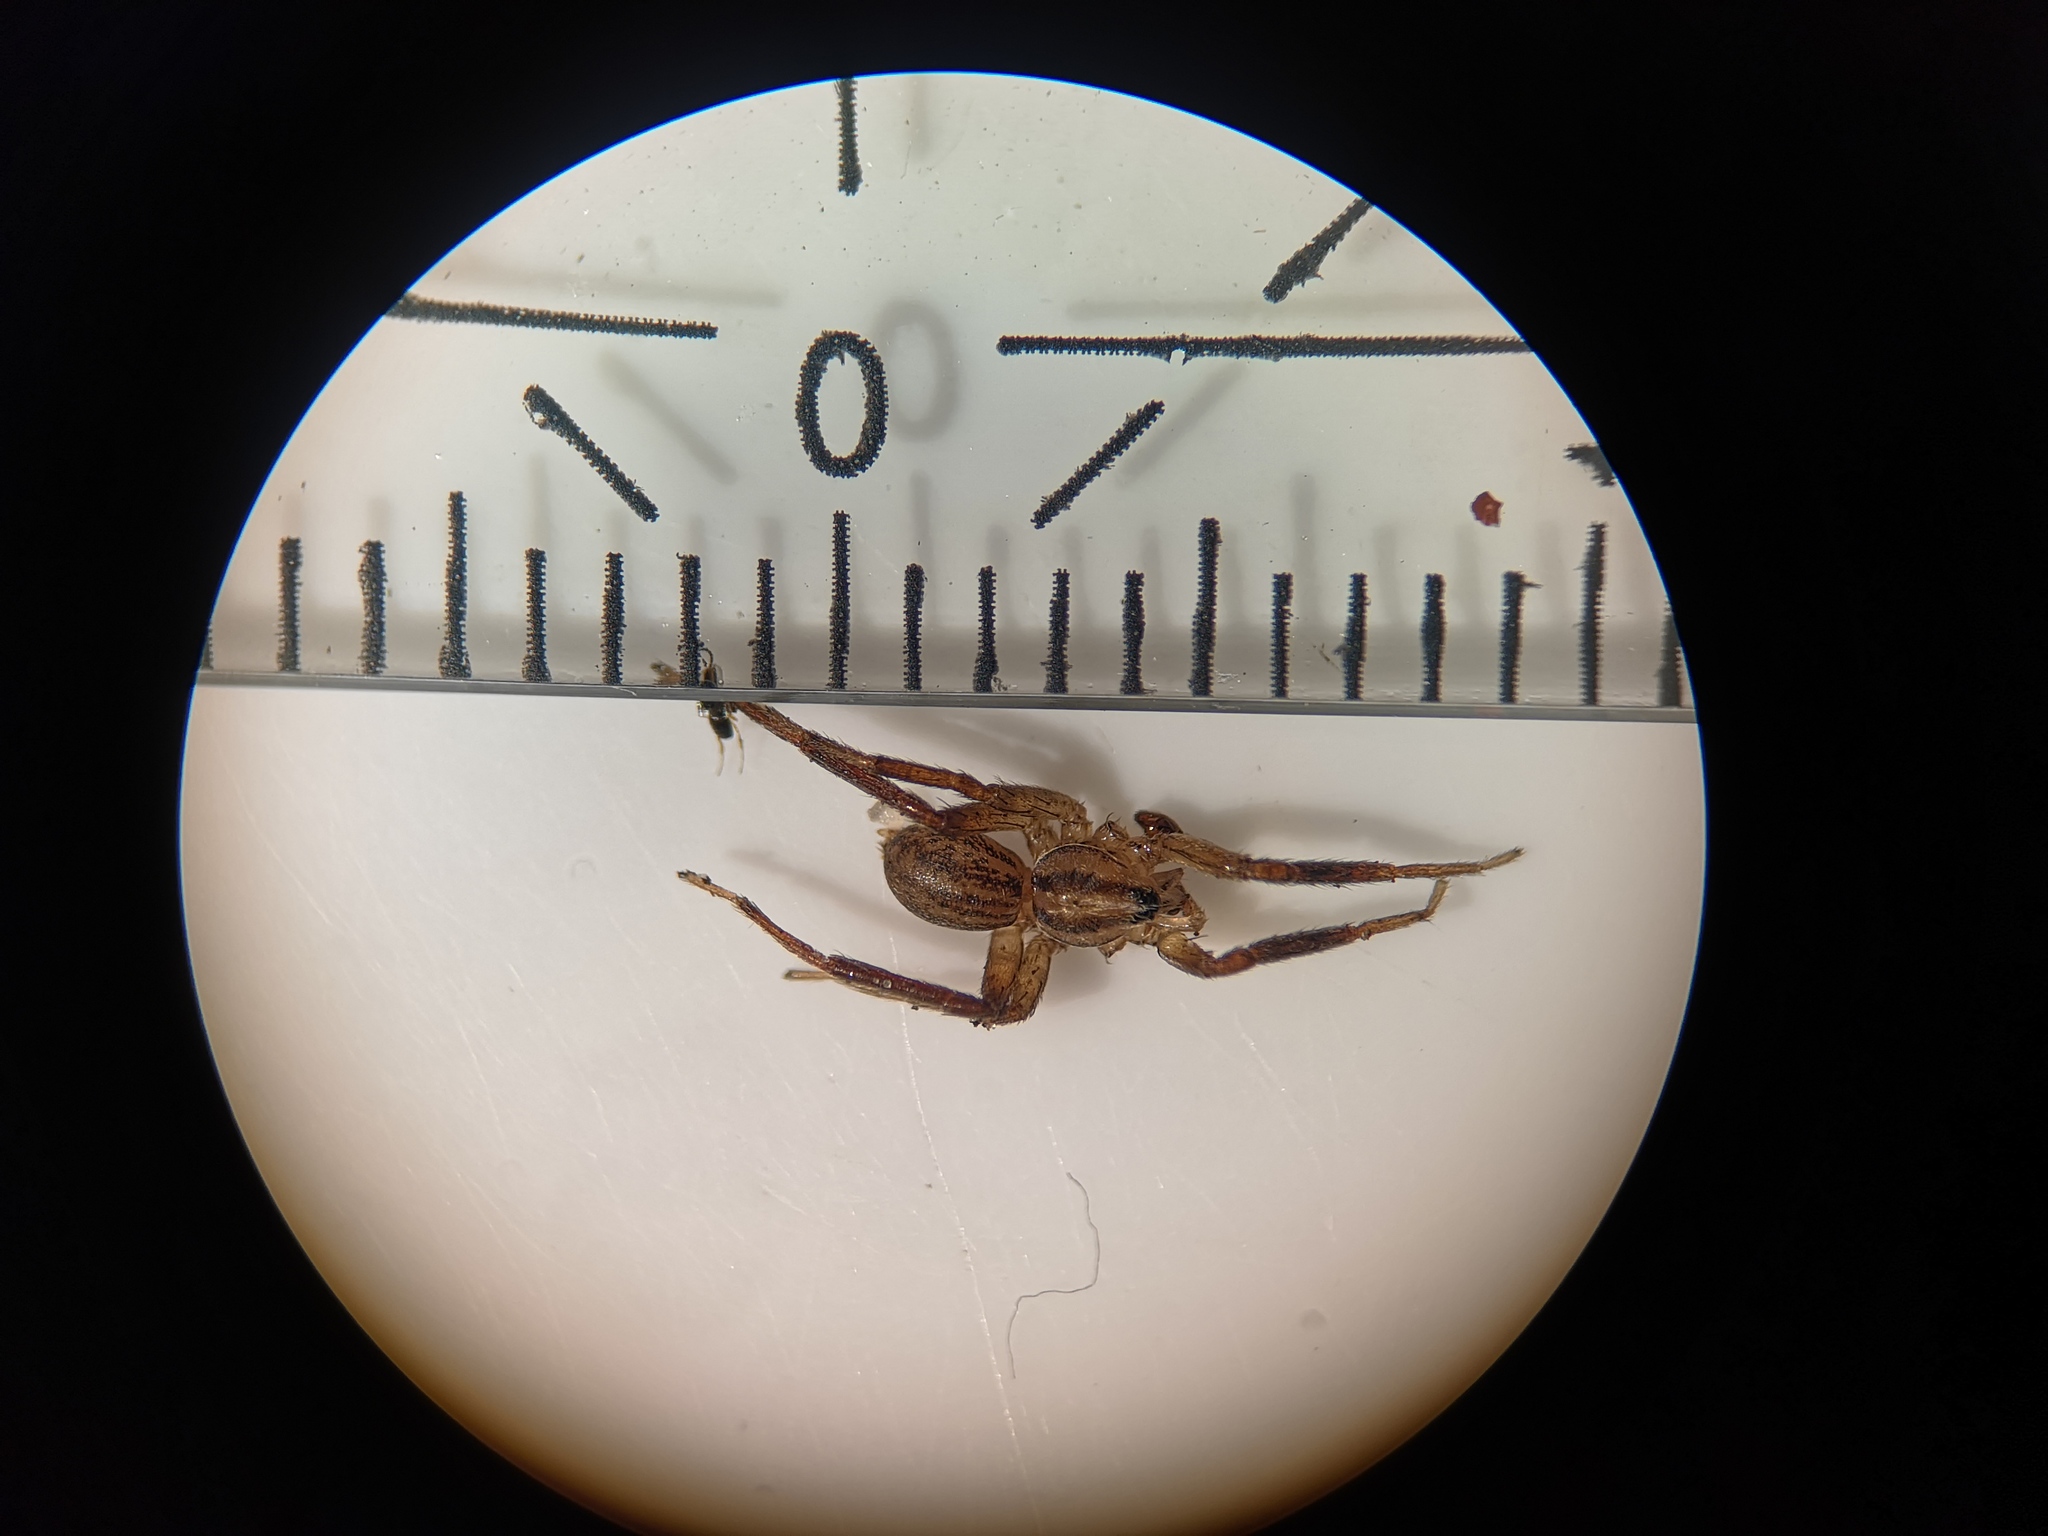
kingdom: Animalia
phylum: Arthropoda
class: Arachnida
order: Araneae
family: Miturgidae
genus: Zora
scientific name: Zora spinimana
